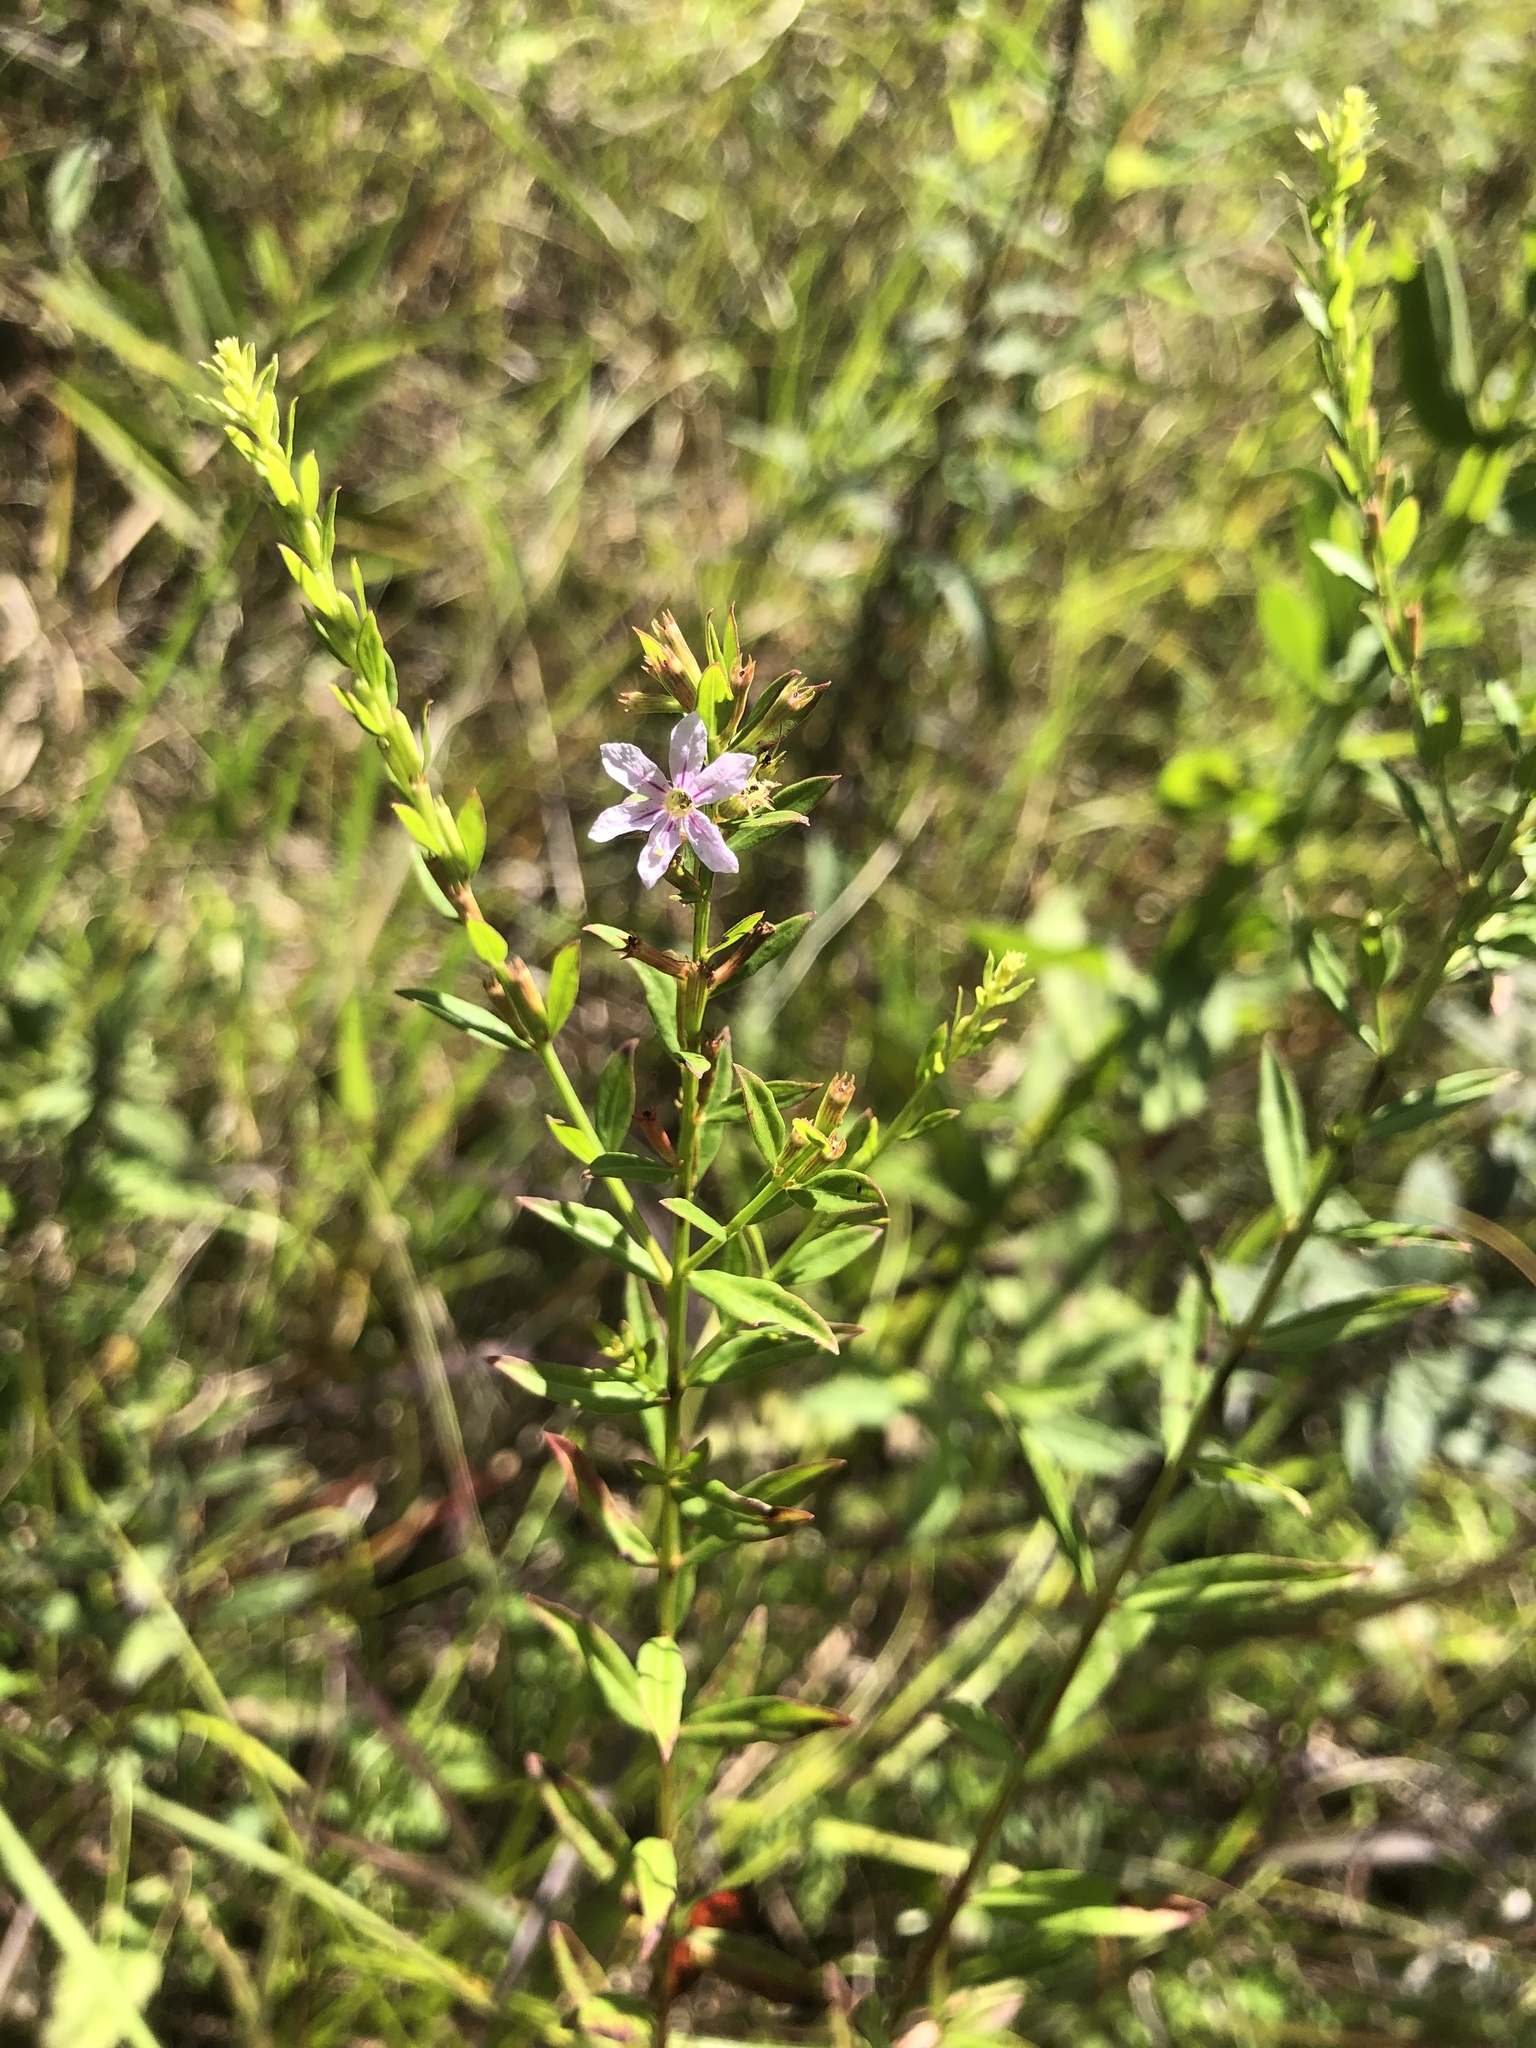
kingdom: Plantae
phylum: Tracheophyta
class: Magnoliopsida
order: Myrtales
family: Lythraceae
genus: Lythrum
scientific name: Lythrum alatum
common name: Winged loosestrife
